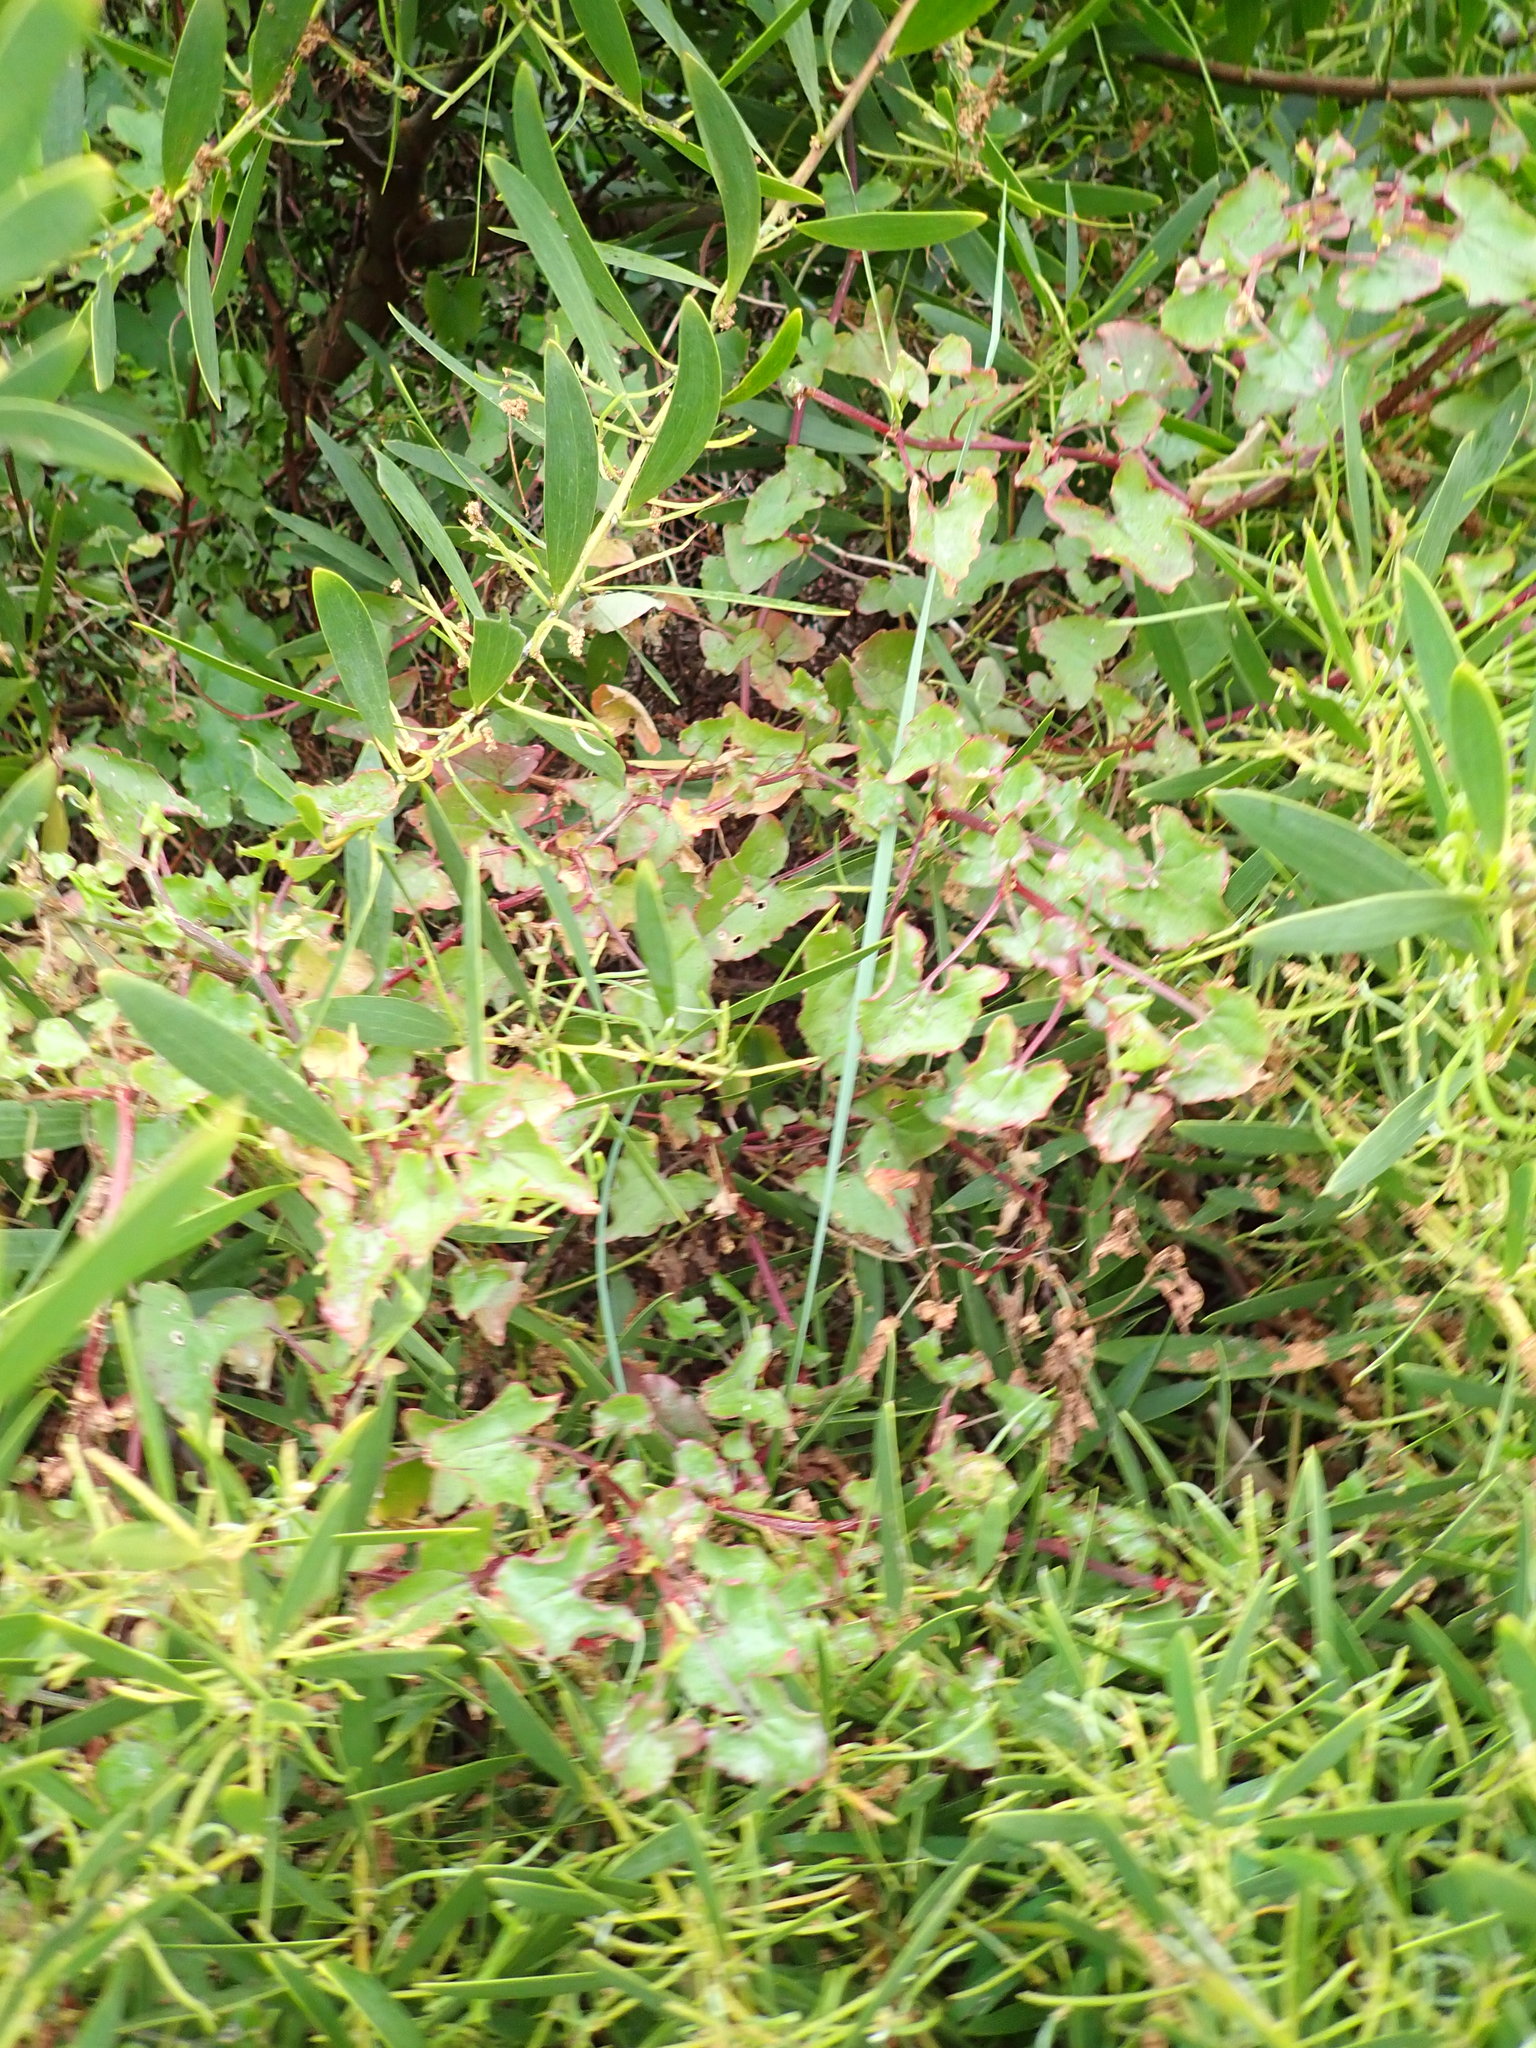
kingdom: Plantae
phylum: Tracheophyta
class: Magnoliopsida
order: Caryophyllales
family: Polygonaceae
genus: Rumex
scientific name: Rumex sagittatus
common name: Climbing dock
